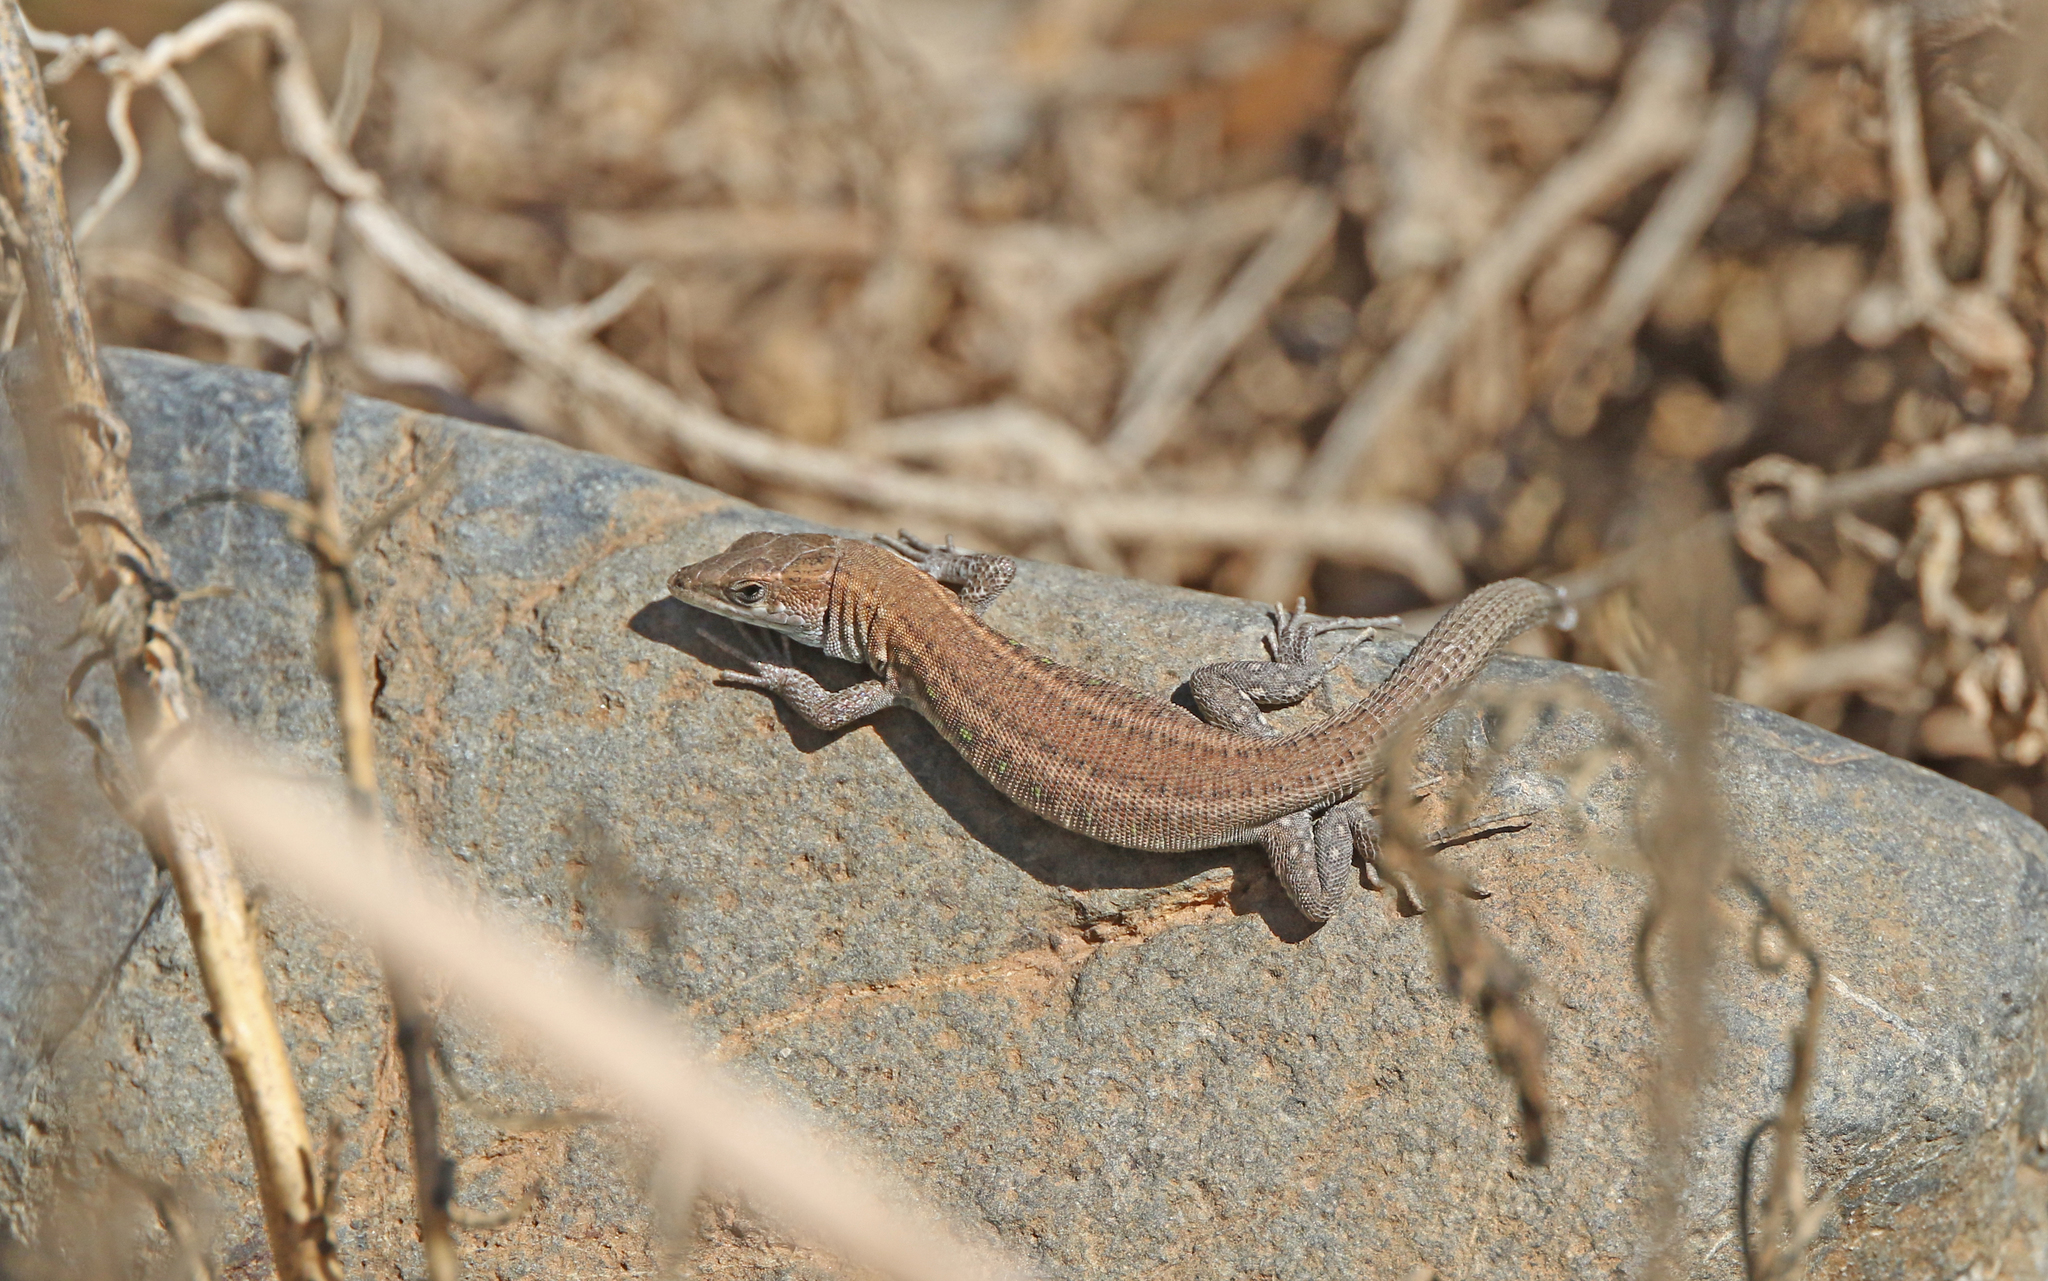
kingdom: Animalia
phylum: Chordata
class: Squamata
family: Lacertidae
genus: Gallotia
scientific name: Gallotia atlantica
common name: Atlantic lizard
